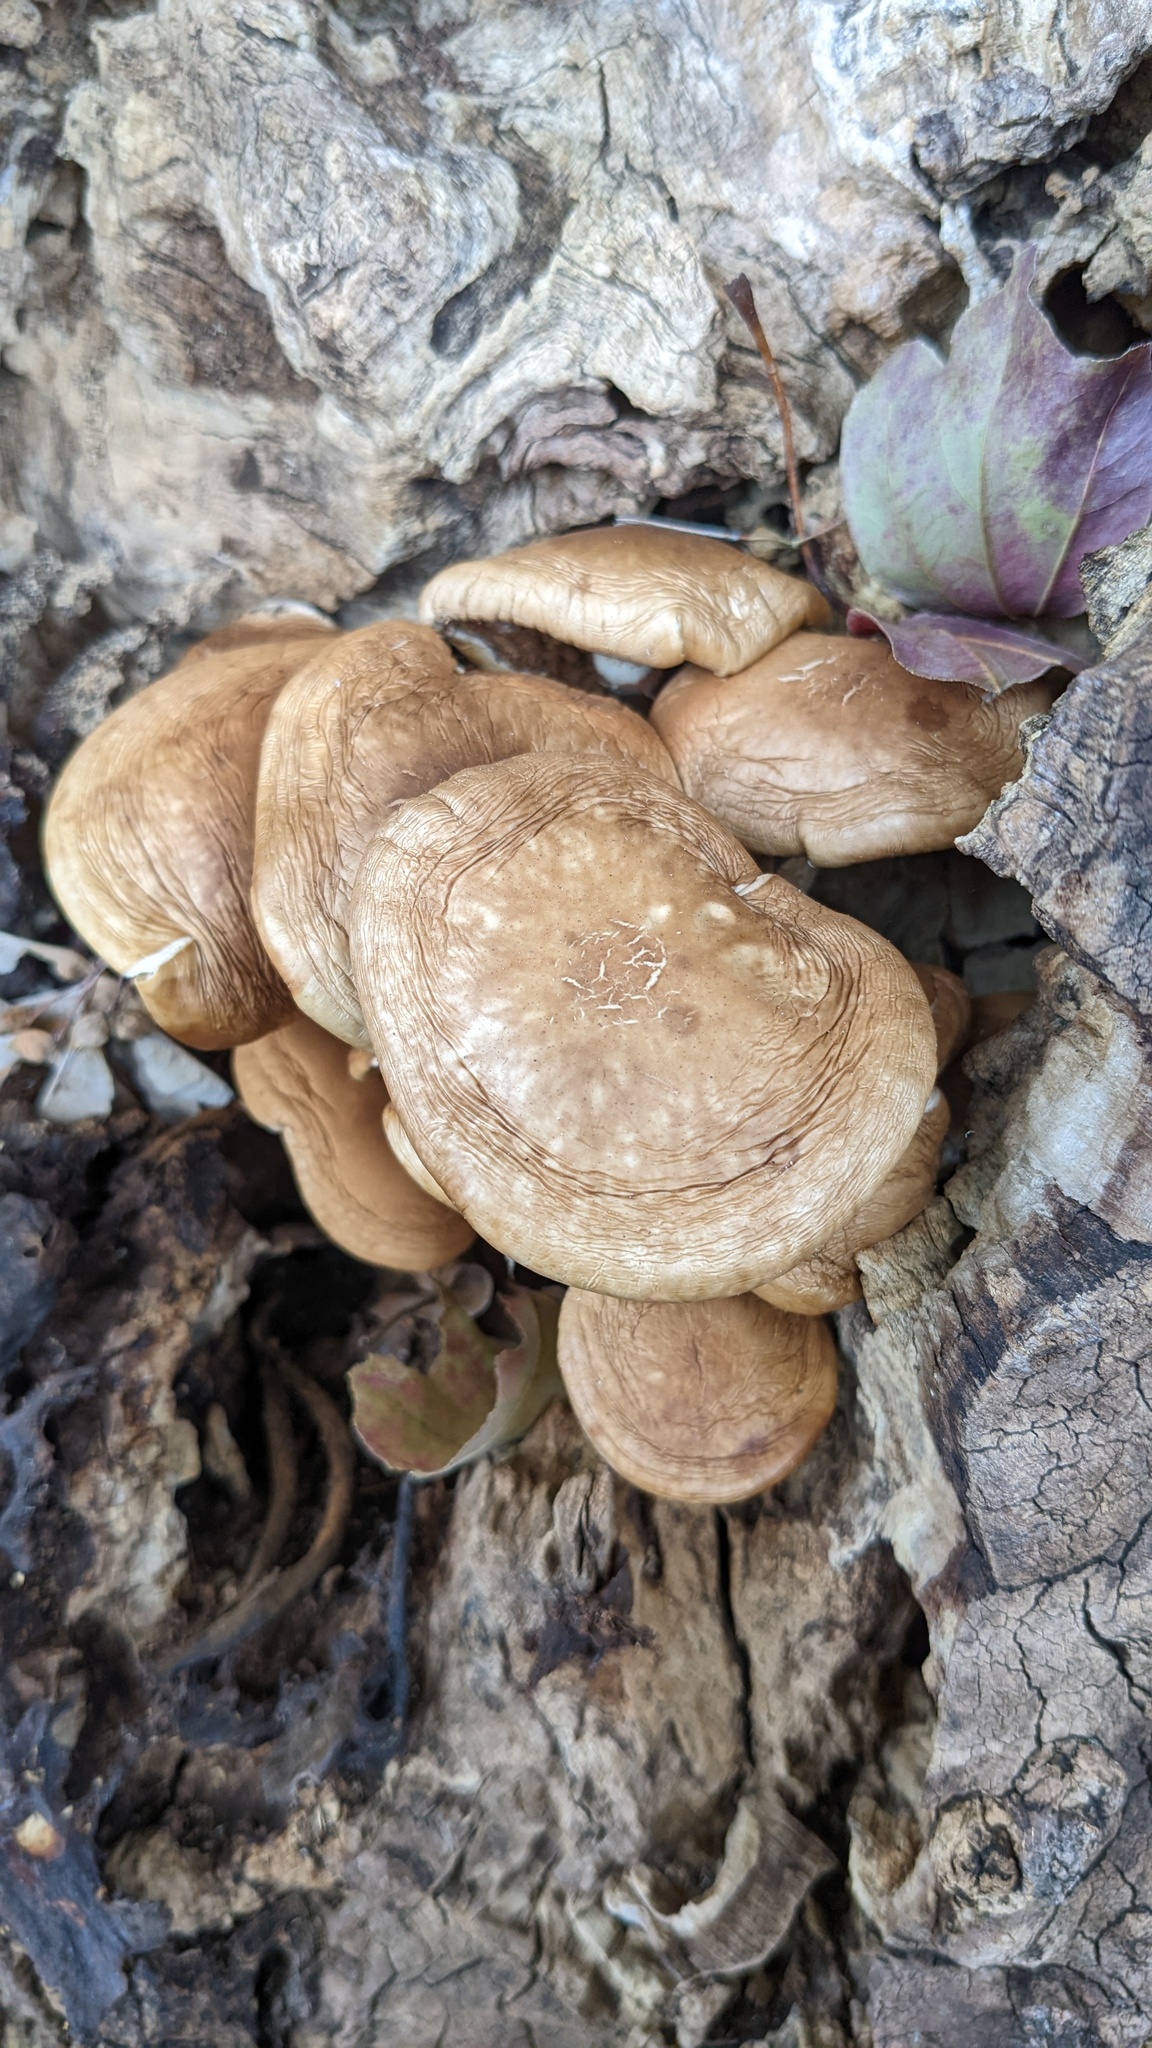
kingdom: Fungi
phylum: Basidiomycota
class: Agaricomycetes
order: Agaricales
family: Tubariaceae
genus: Cyclocybe
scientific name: Cyclocybe cylindracea
